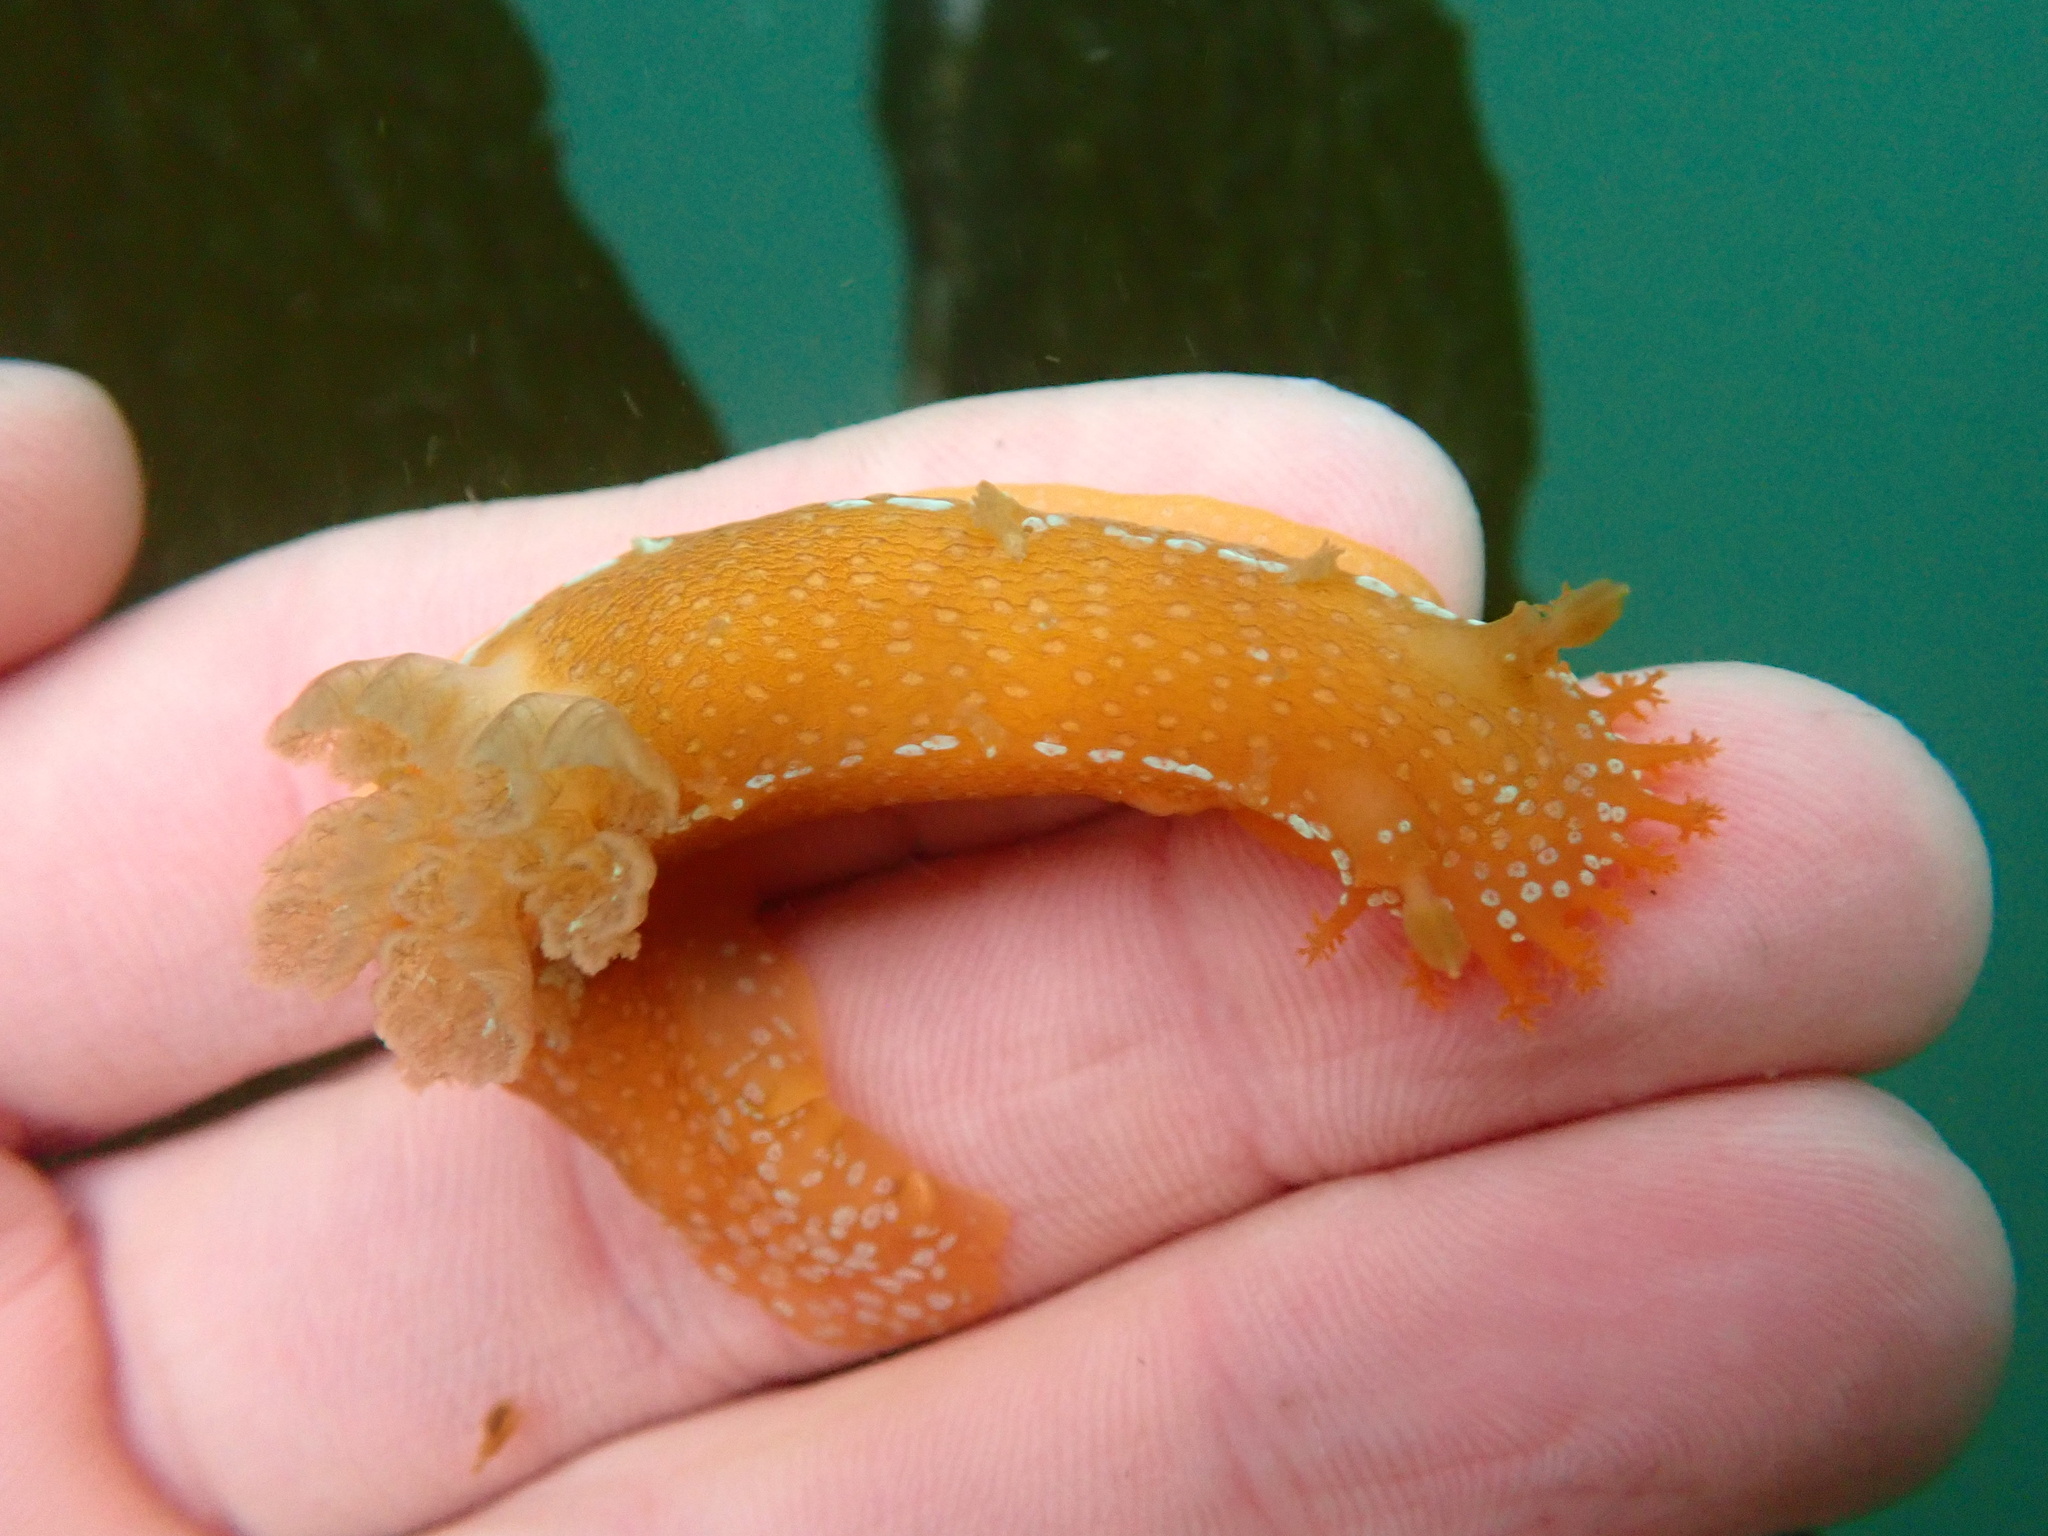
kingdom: Animalia
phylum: Mollusca
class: Gastropoda
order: Nudibranchia
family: Polyceridae
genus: Triopha
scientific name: Triopha maculata
